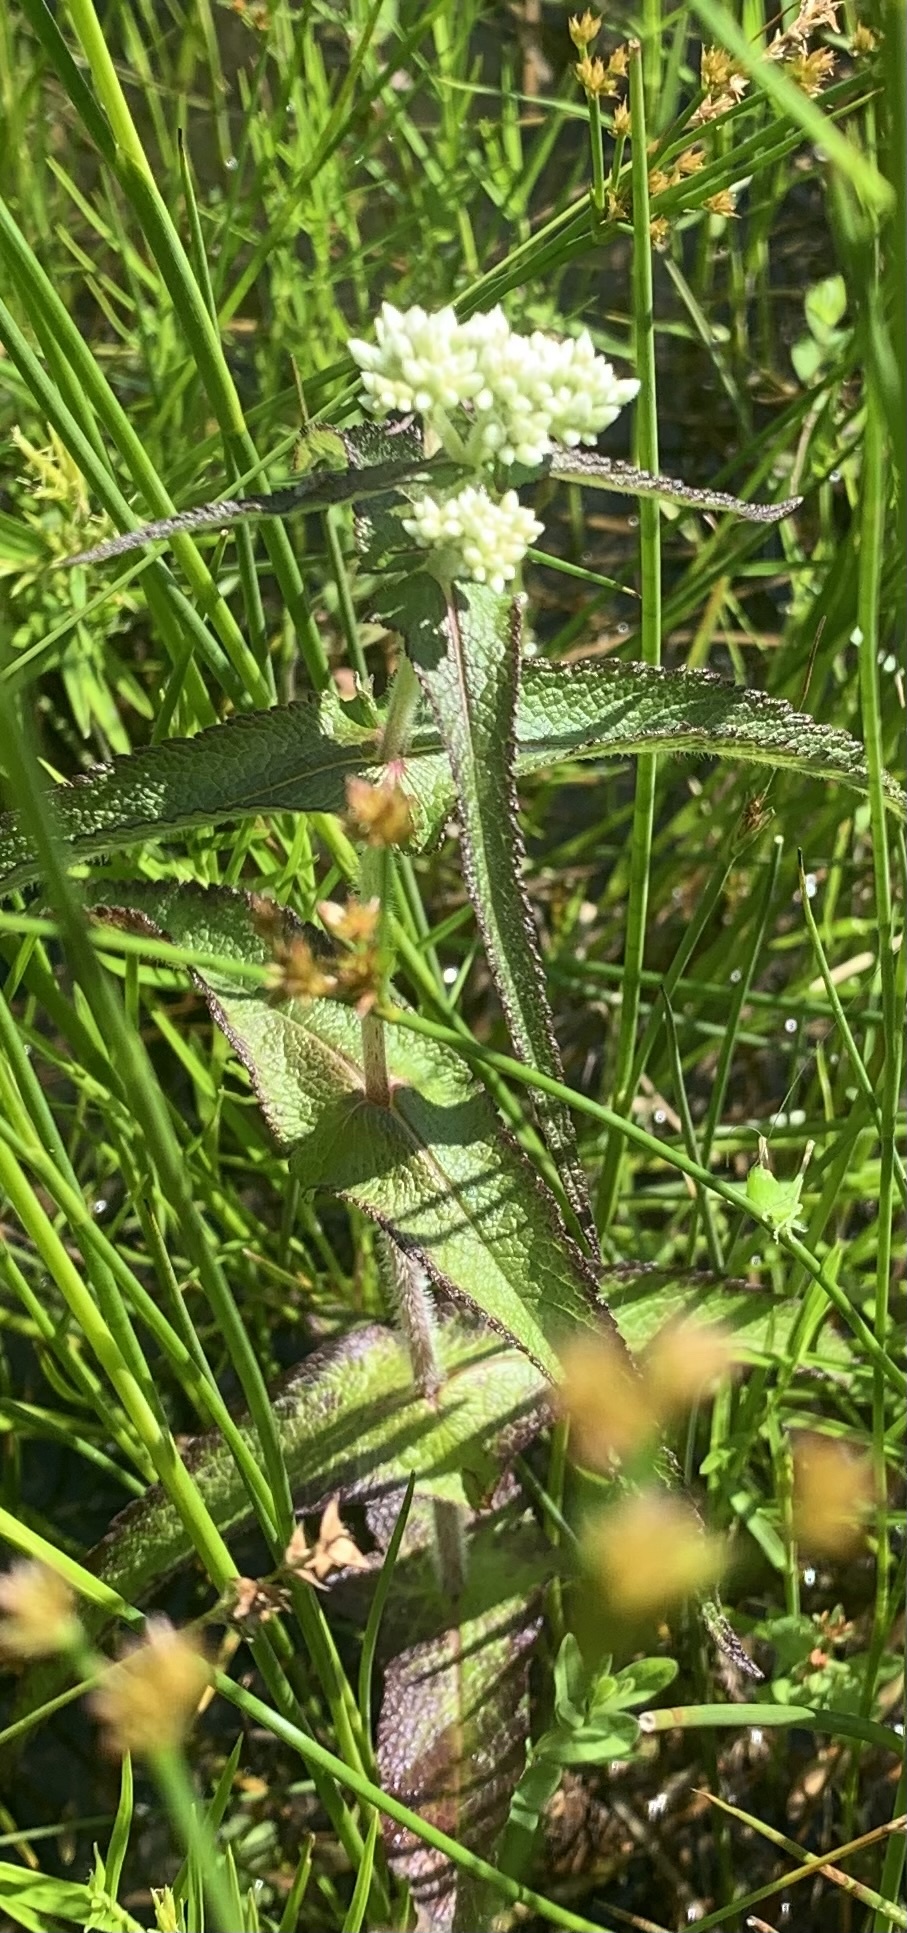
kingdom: Plantae
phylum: Tracheophyta
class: Magnoliopsida
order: Asterales
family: Asteraceae
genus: Eupatorium
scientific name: Eupatorium perfoliatum
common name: Boneset
